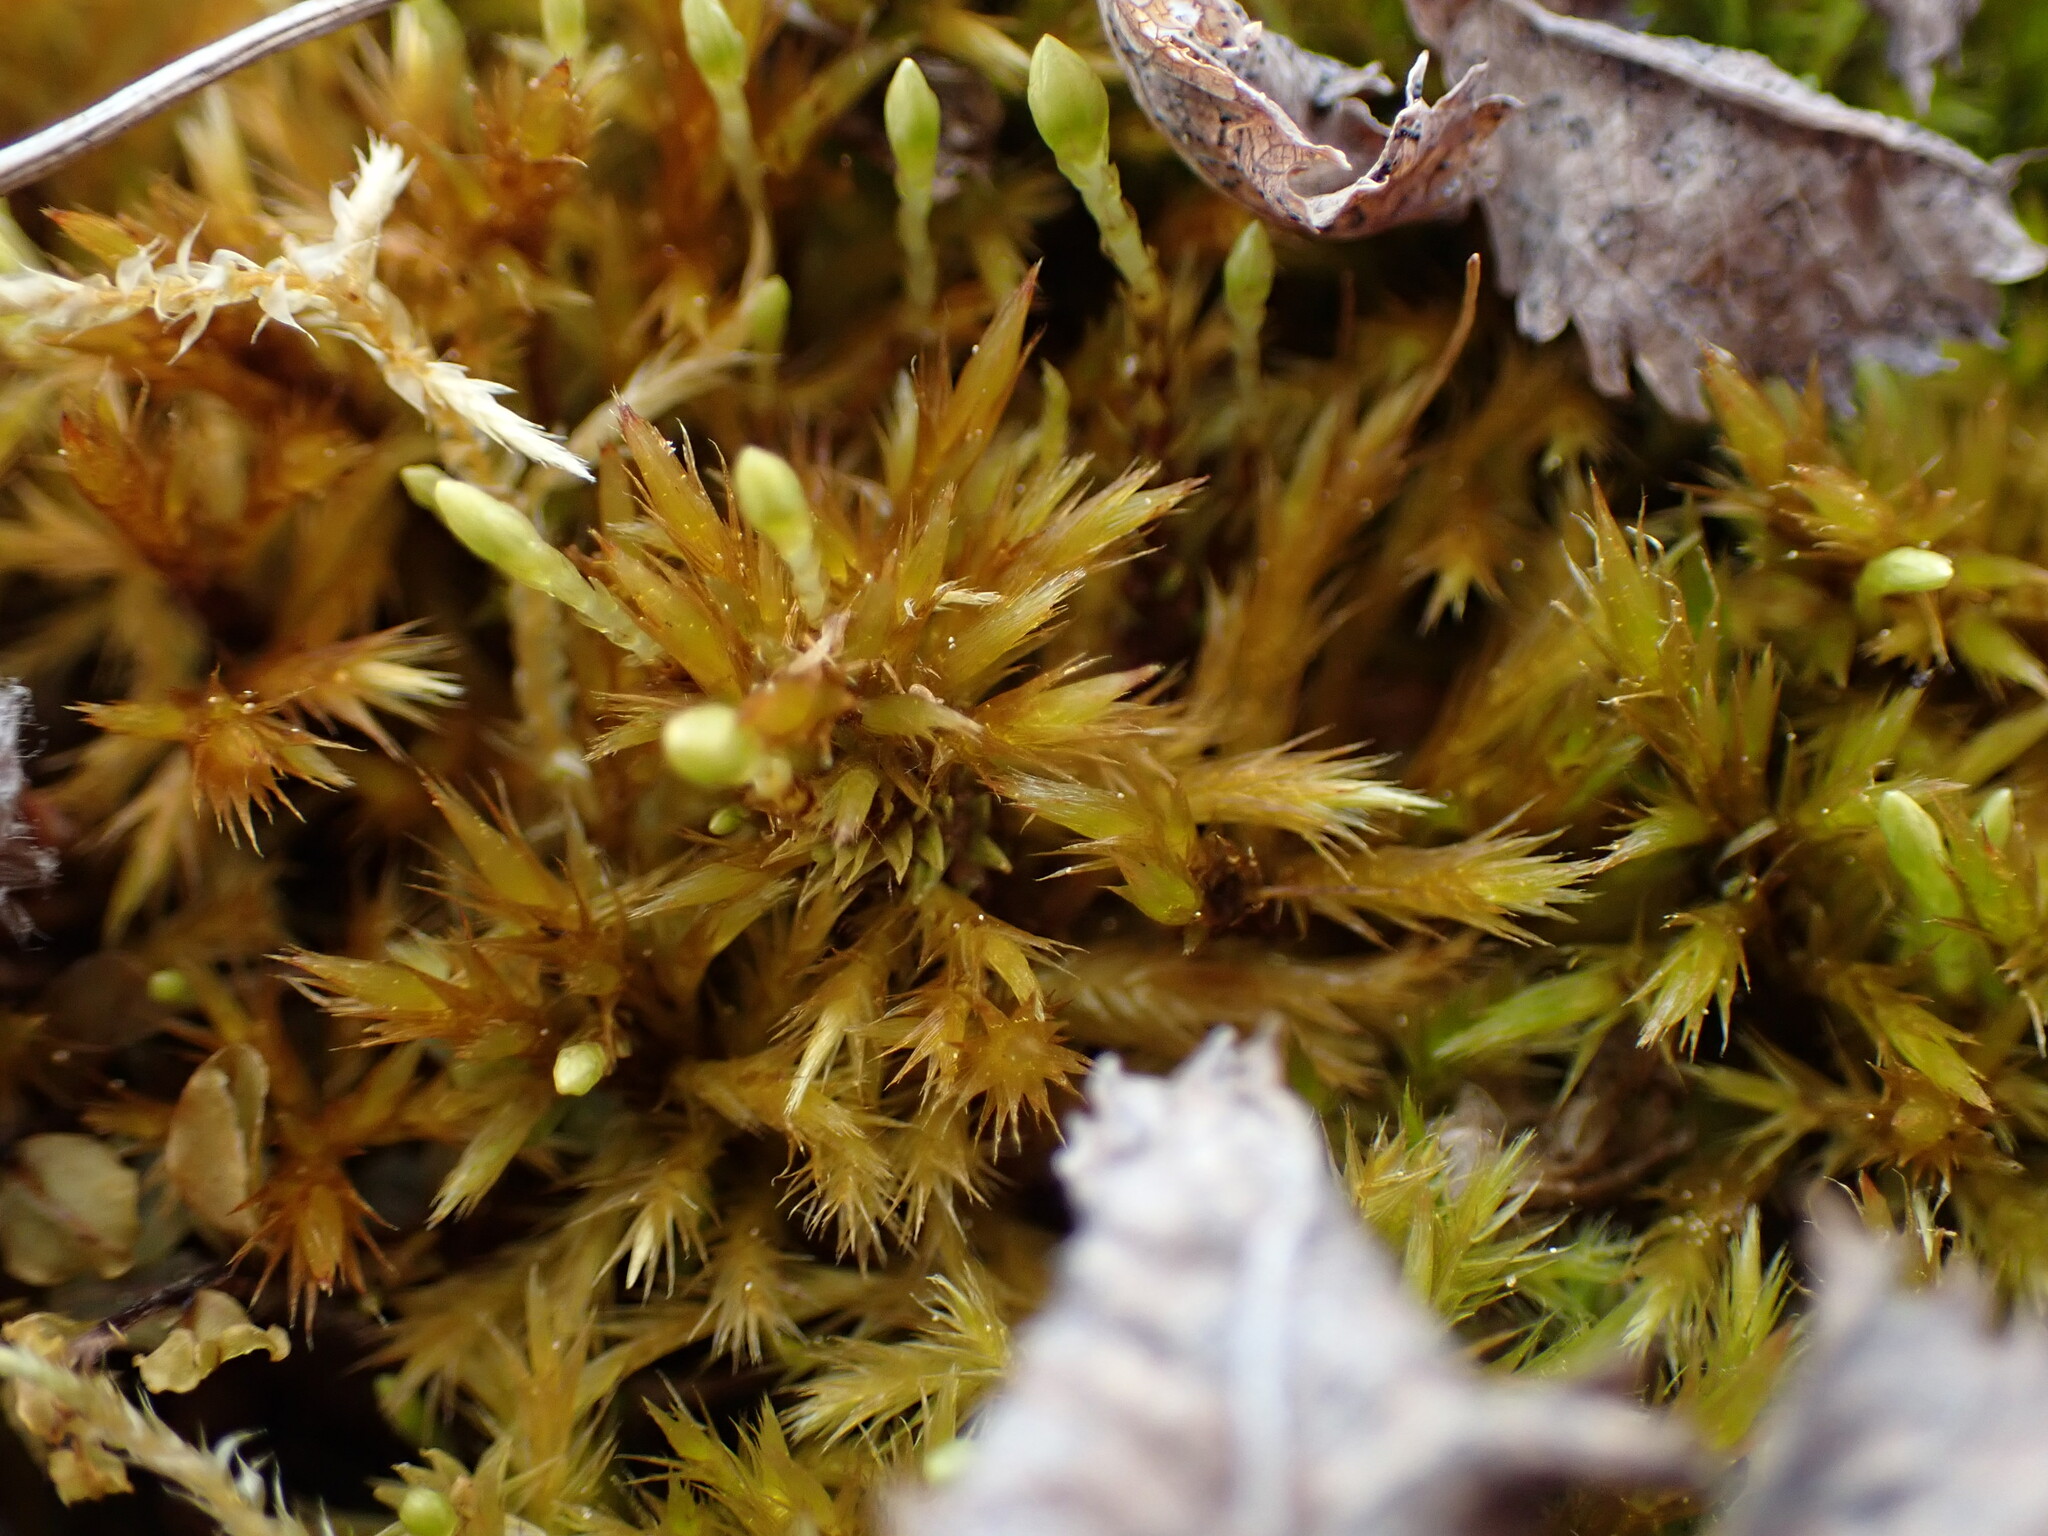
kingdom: Plantae
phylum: Bryophyta
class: Bryopsida
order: Hypnales
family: Amblystegiaceae
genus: Tomentypnum
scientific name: Tomentypnum nitens
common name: Golden fuzzy fen moss
